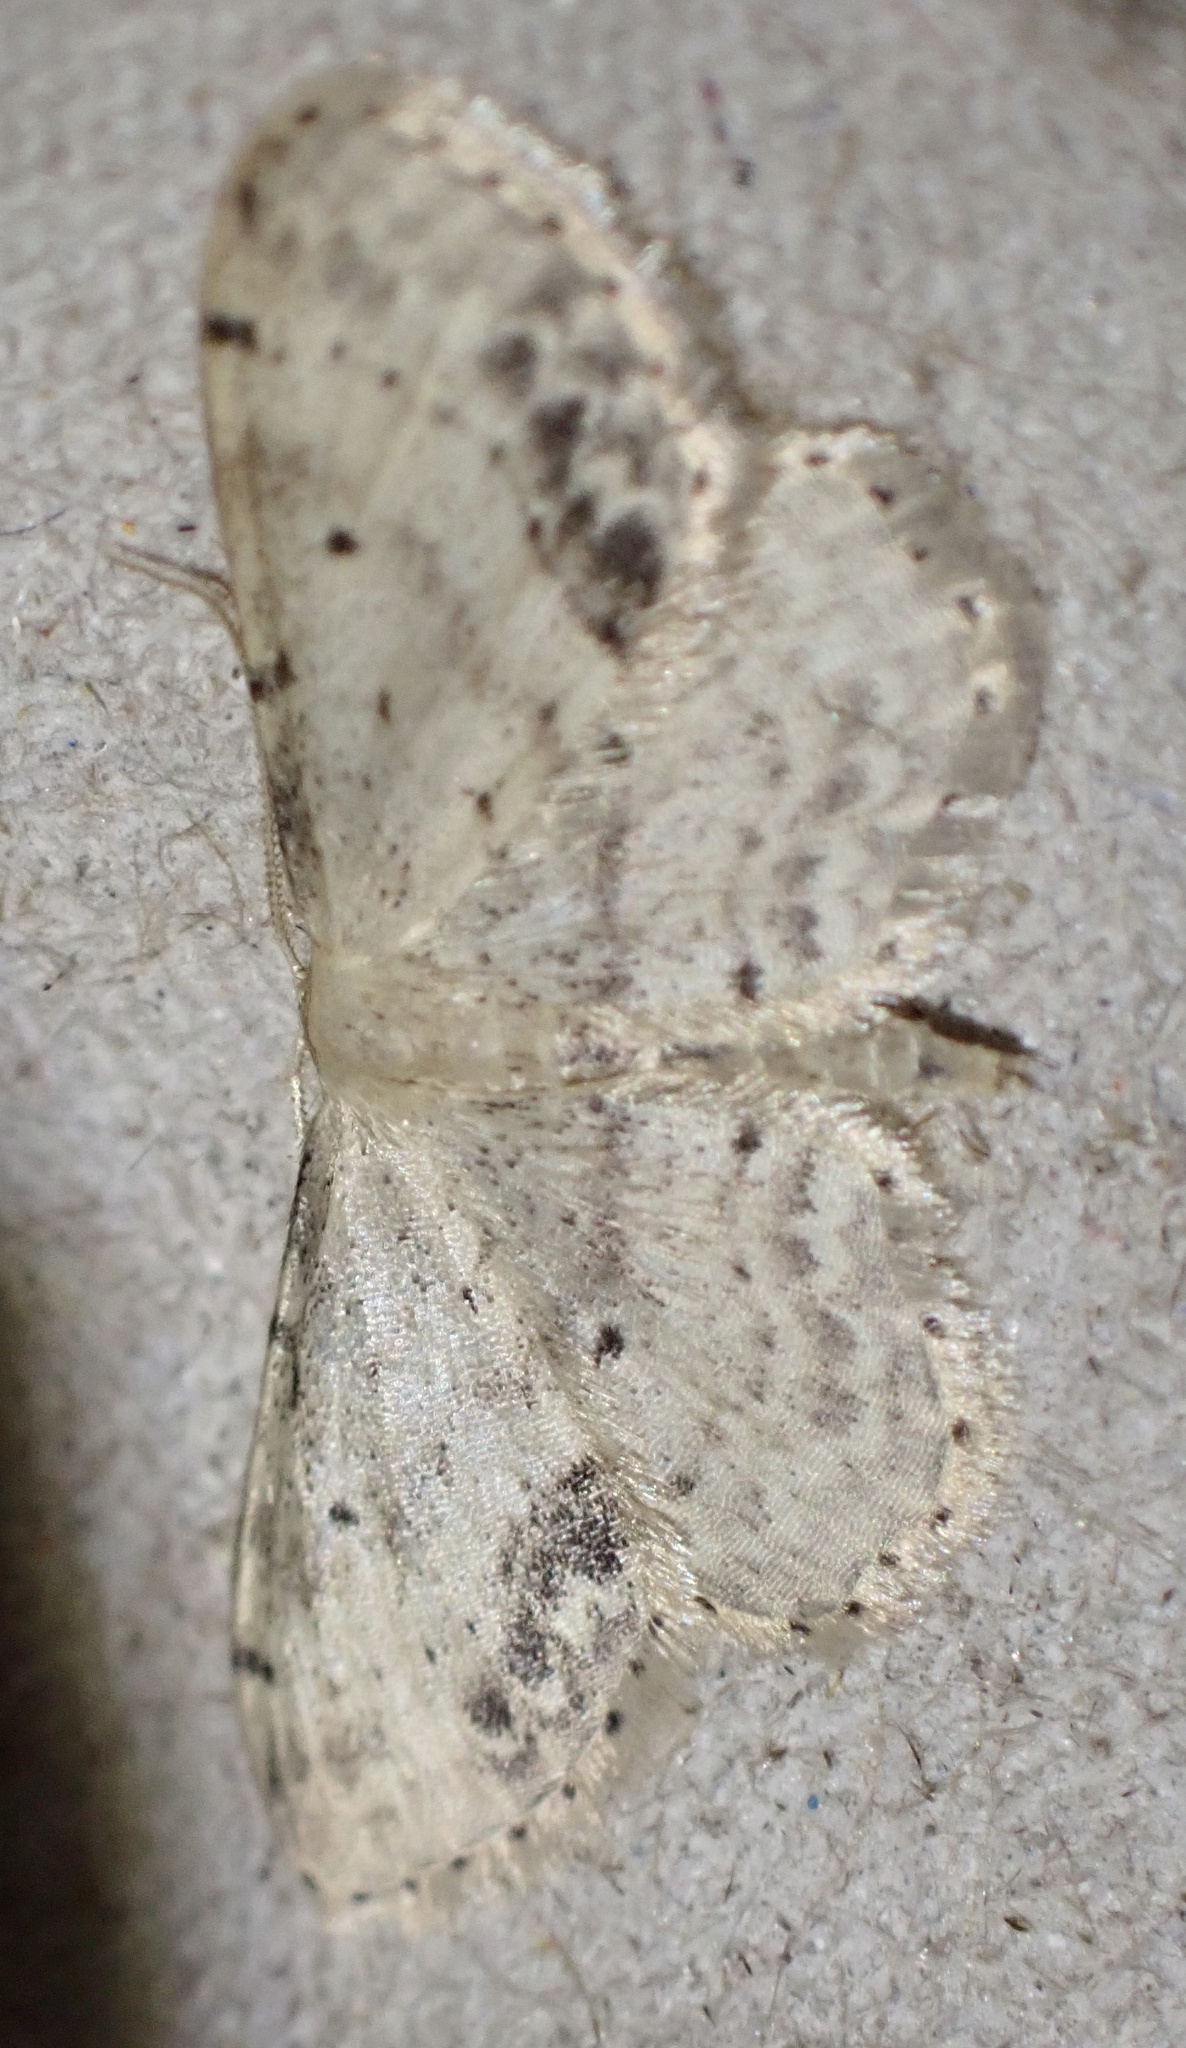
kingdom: Animalia
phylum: Arthropoda
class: Insecta
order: Lepidoptera
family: Geometridae
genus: Idaea
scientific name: Idaea dimidiata
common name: Single-dotted wave
